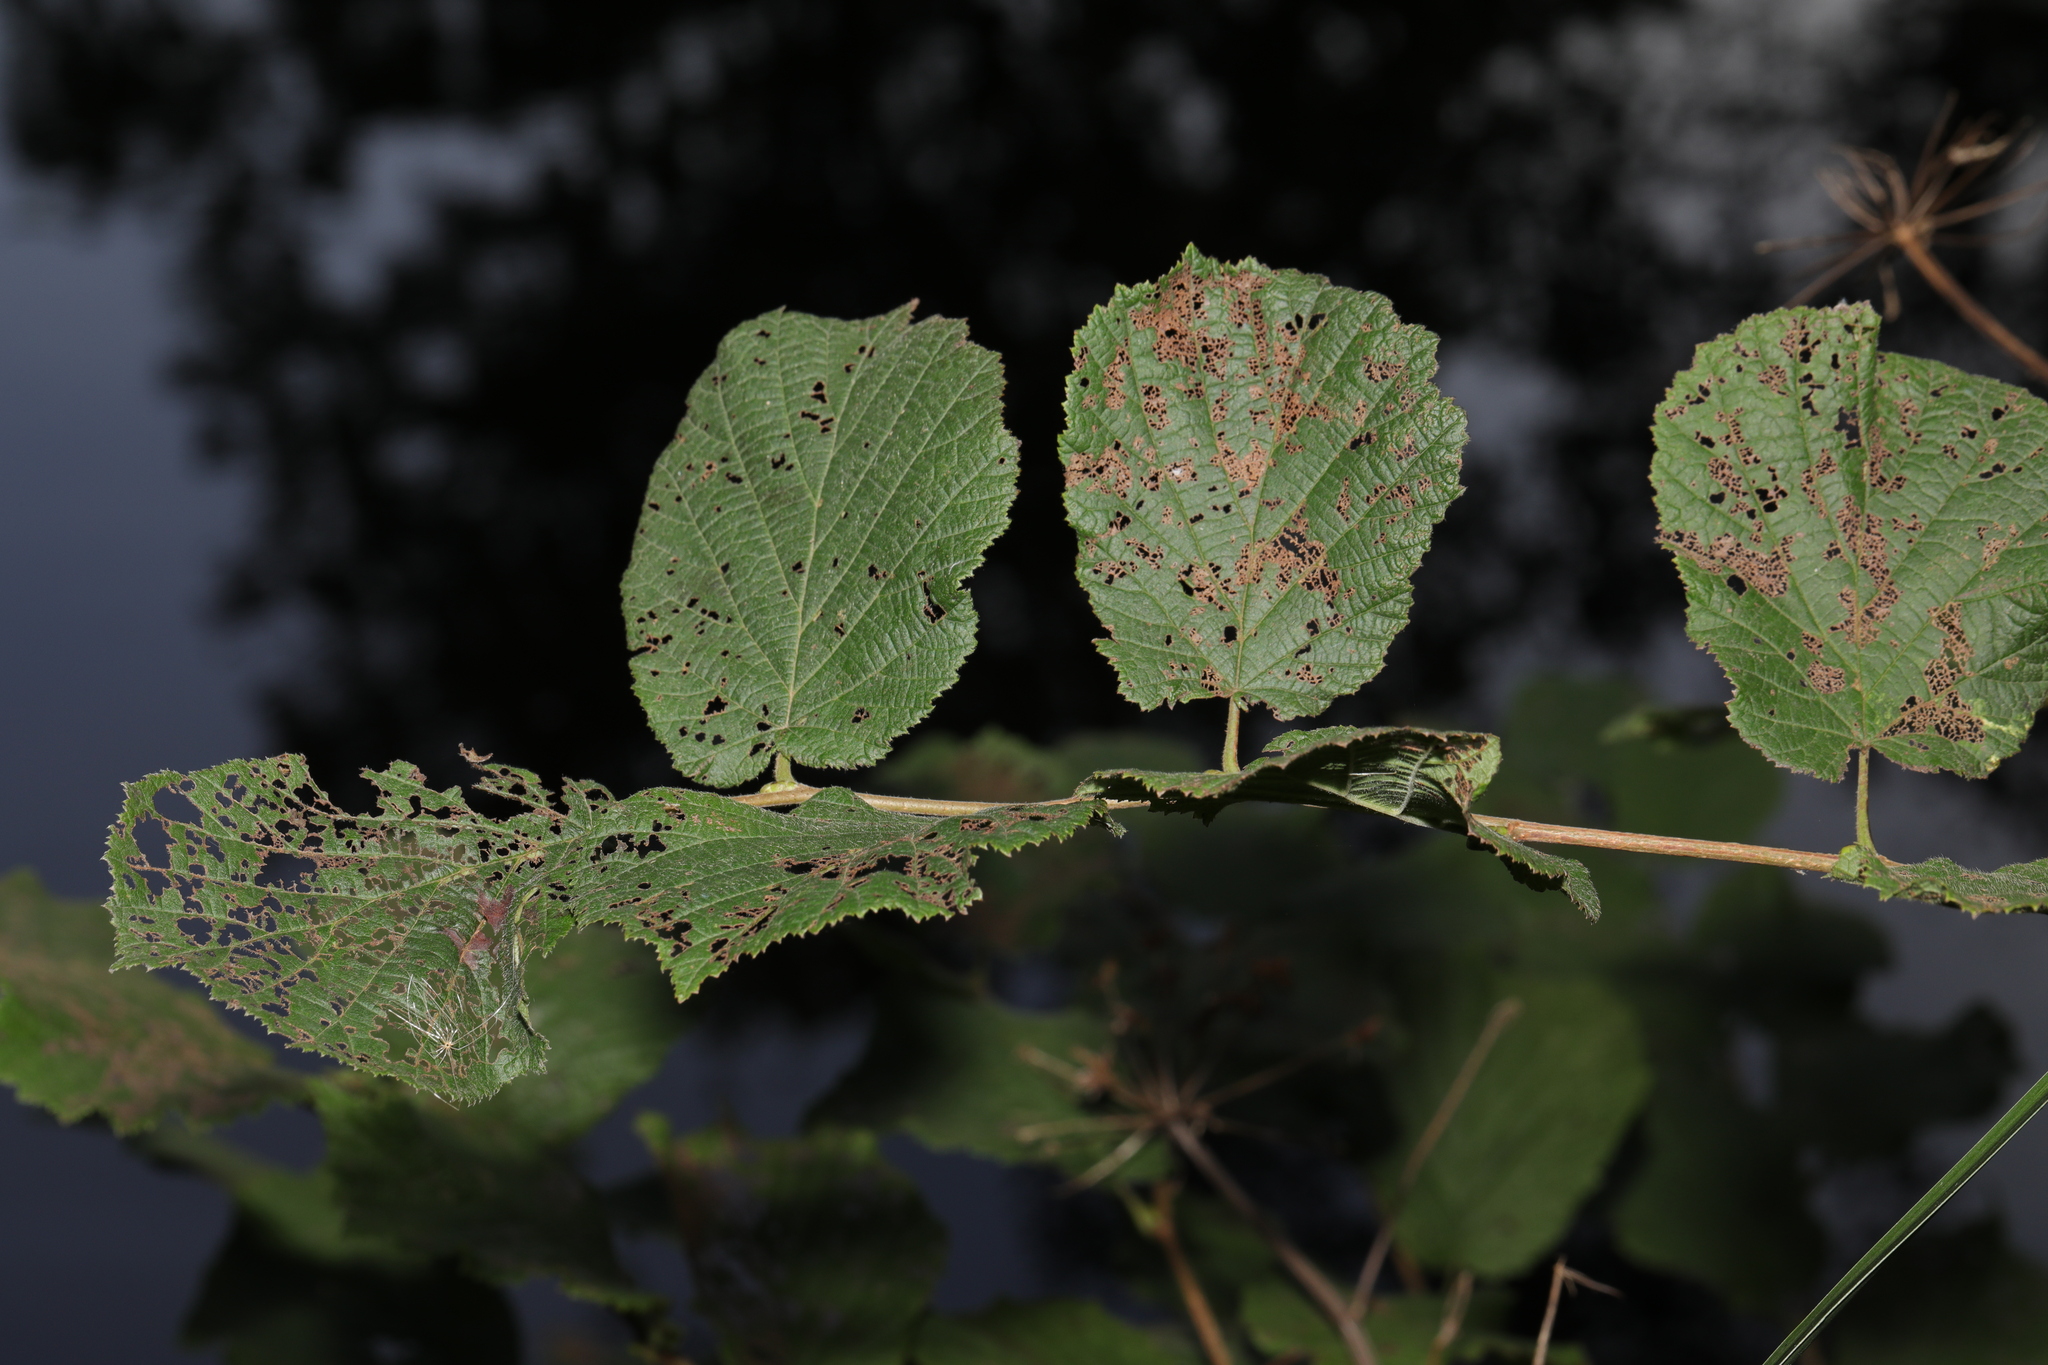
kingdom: Plantae
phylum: Tracheophyta
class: Magnoliopsida
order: Fagales
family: Betulaceae
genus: Corylus
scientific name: Corylus avellana
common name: European hazel
